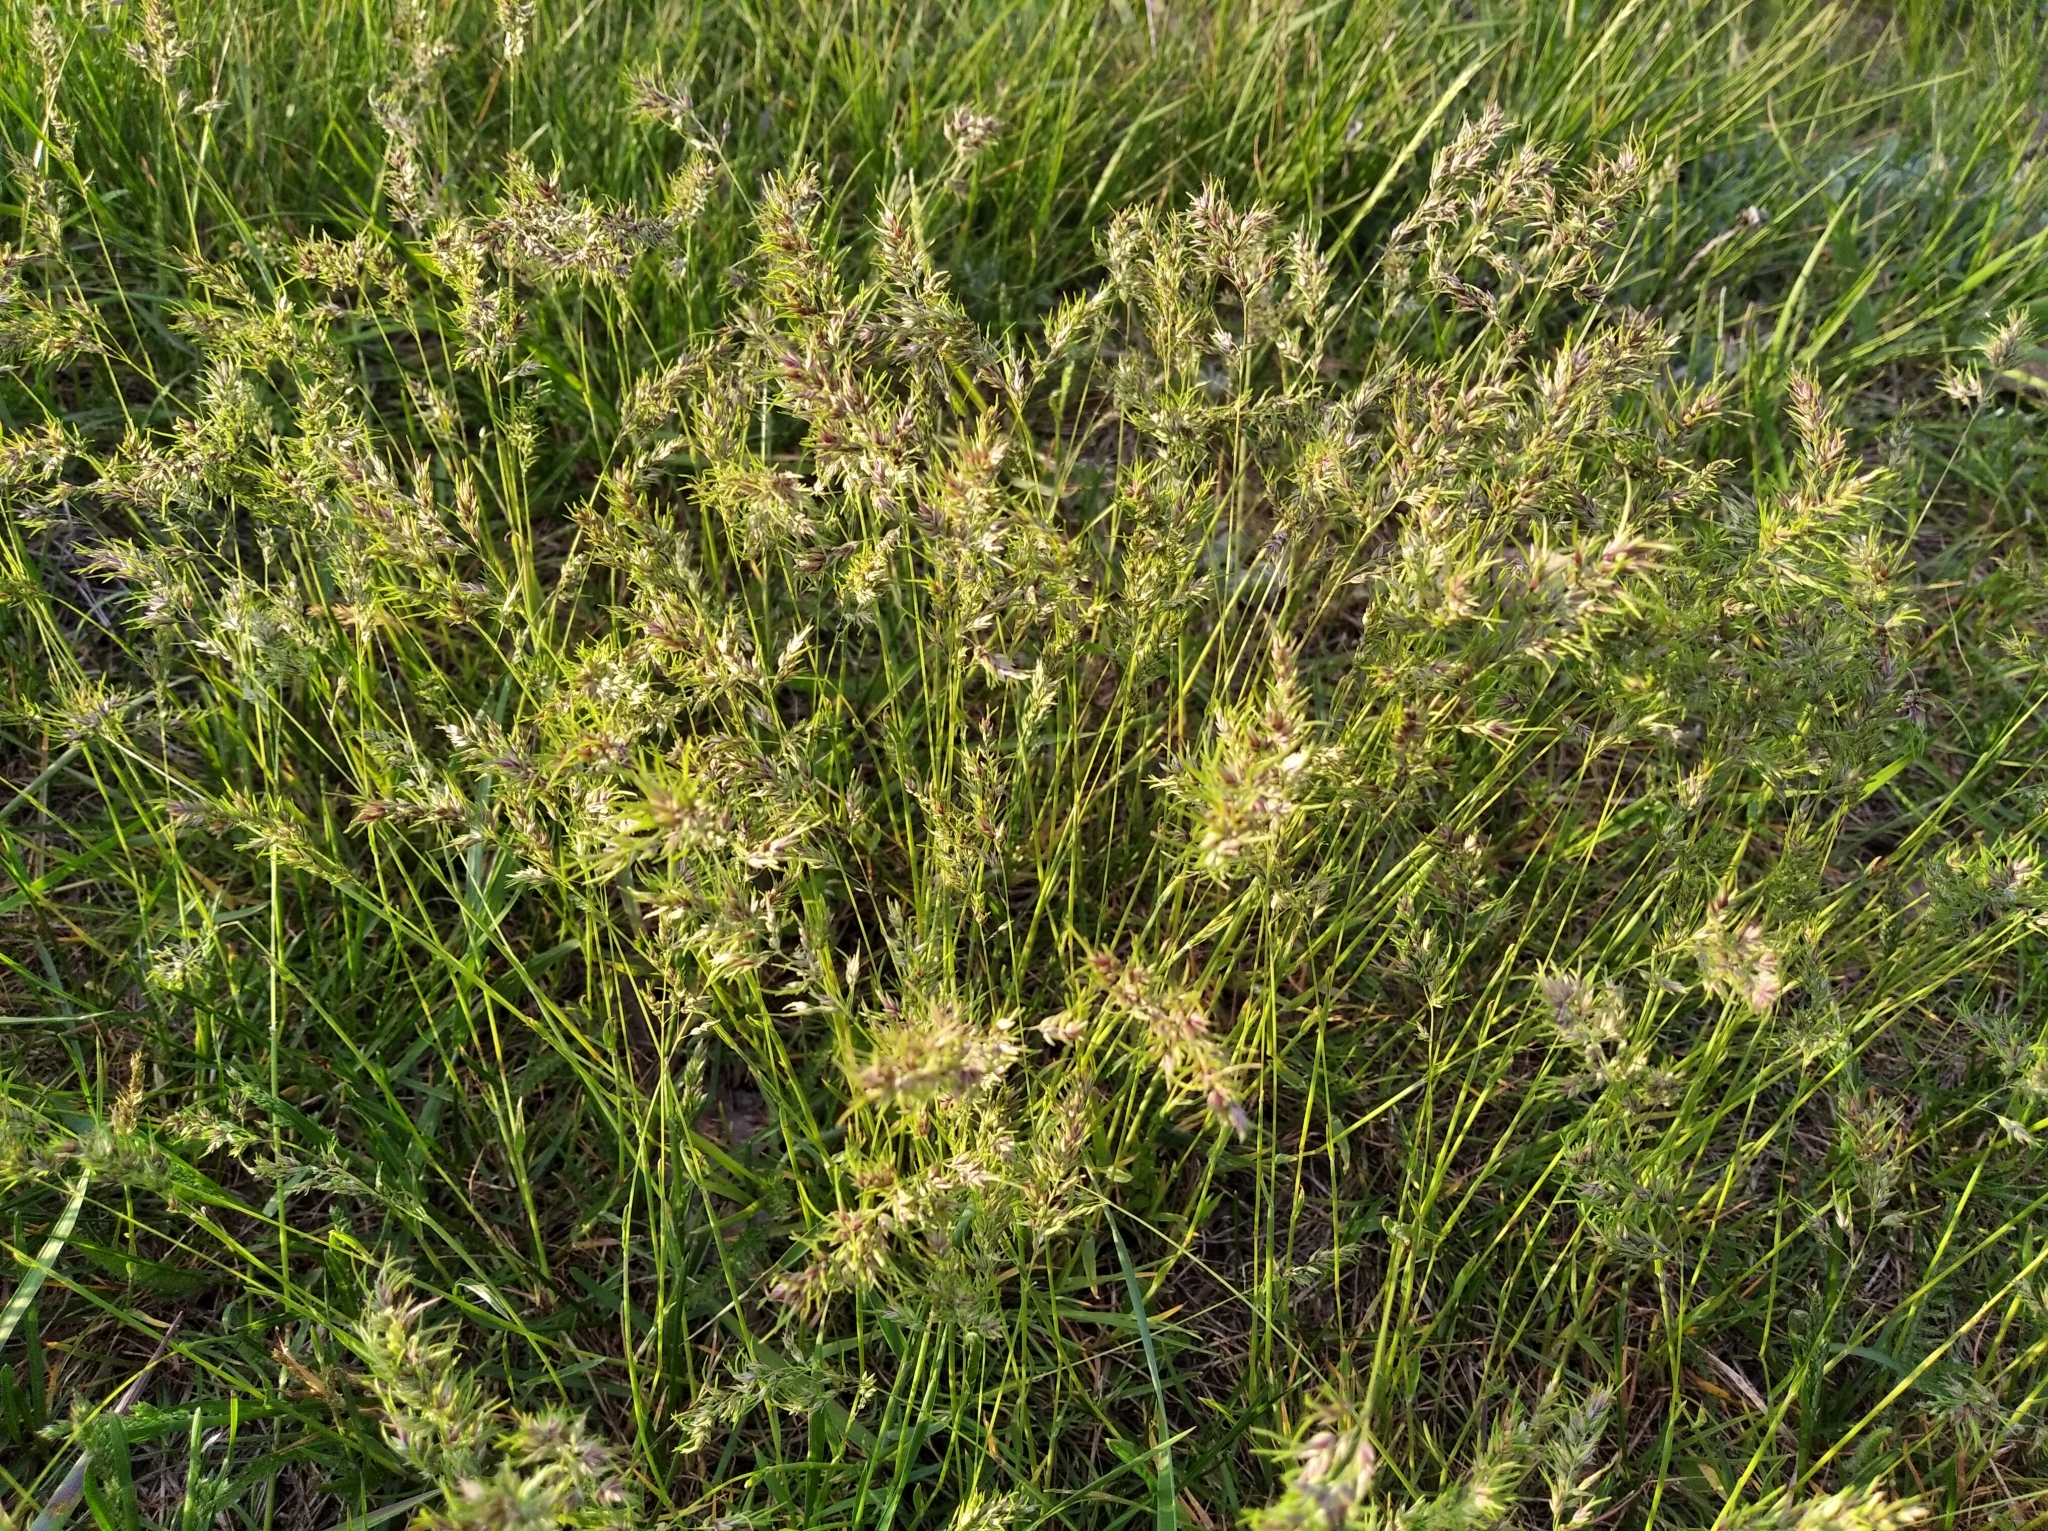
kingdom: Plantae
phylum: Tracheophyta
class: Liliopsida
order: Poales
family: Poaceae
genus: Poa
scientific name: Poa bulbosa
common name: Bulbous bluegrass
